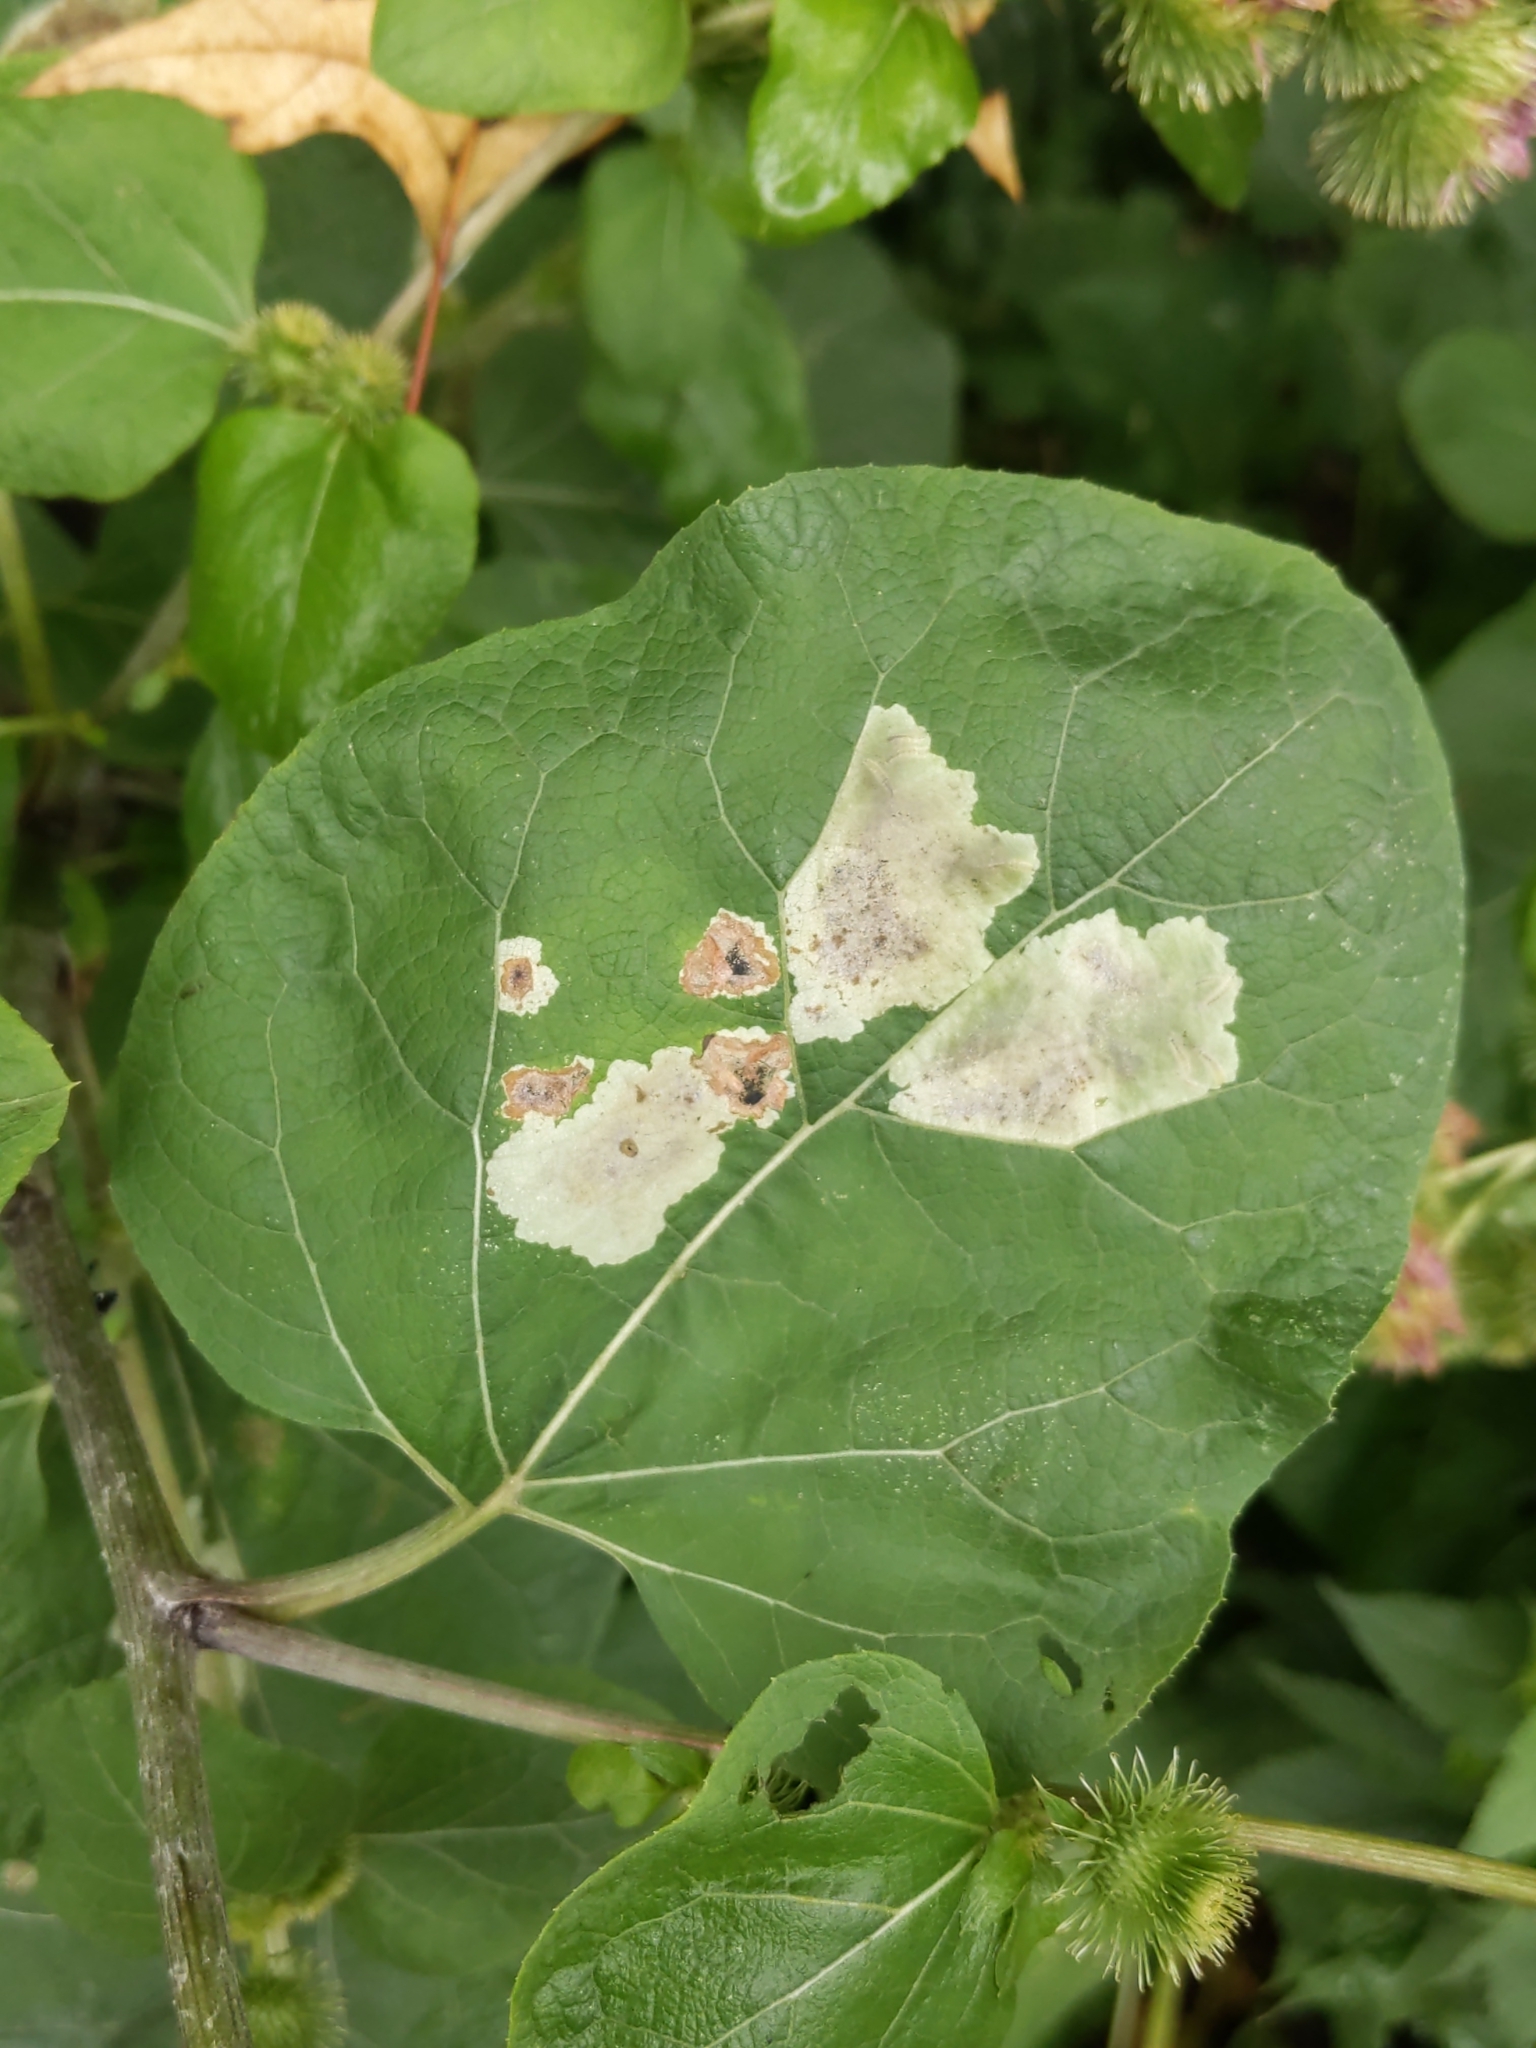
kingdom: Animalia
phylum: Arthropoda
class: Insecta
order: Diptera
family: Agromyzidae
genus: Calycomyza
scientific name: Calycomyza flavinotum
